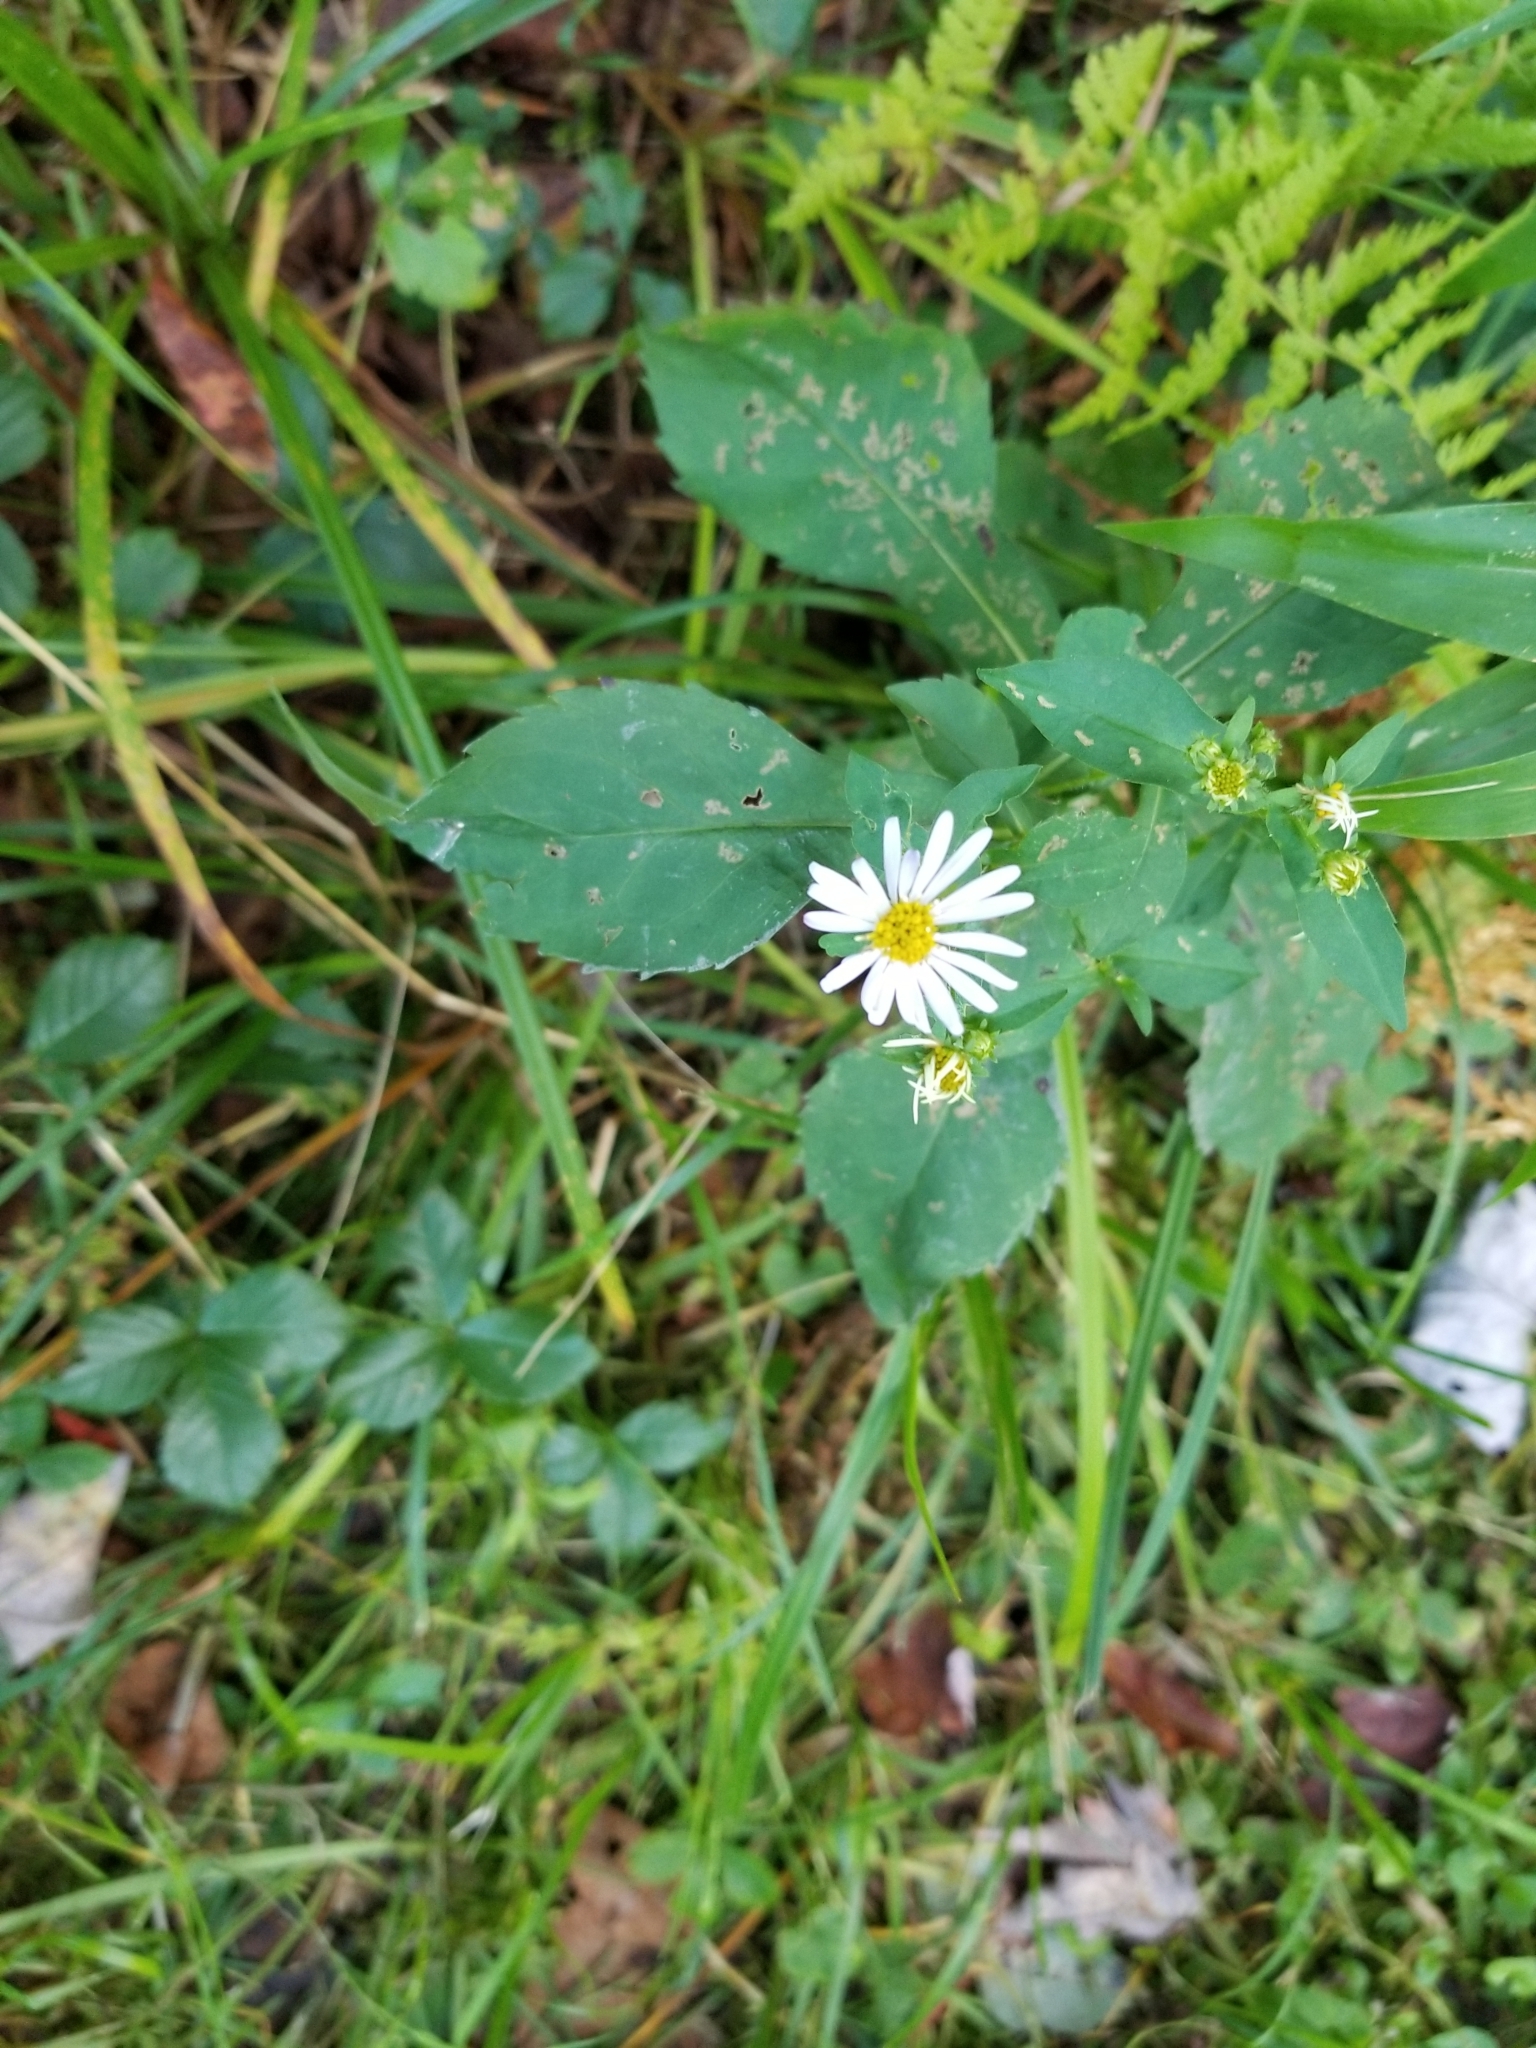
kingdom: Plantae
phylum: Tracheophyta
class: Magnoliopsida
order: Asterales
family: Asteraceae
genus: Symphyotrichum
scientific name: Symphyotrichum prenanthoides
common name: Crooked-stem aster
